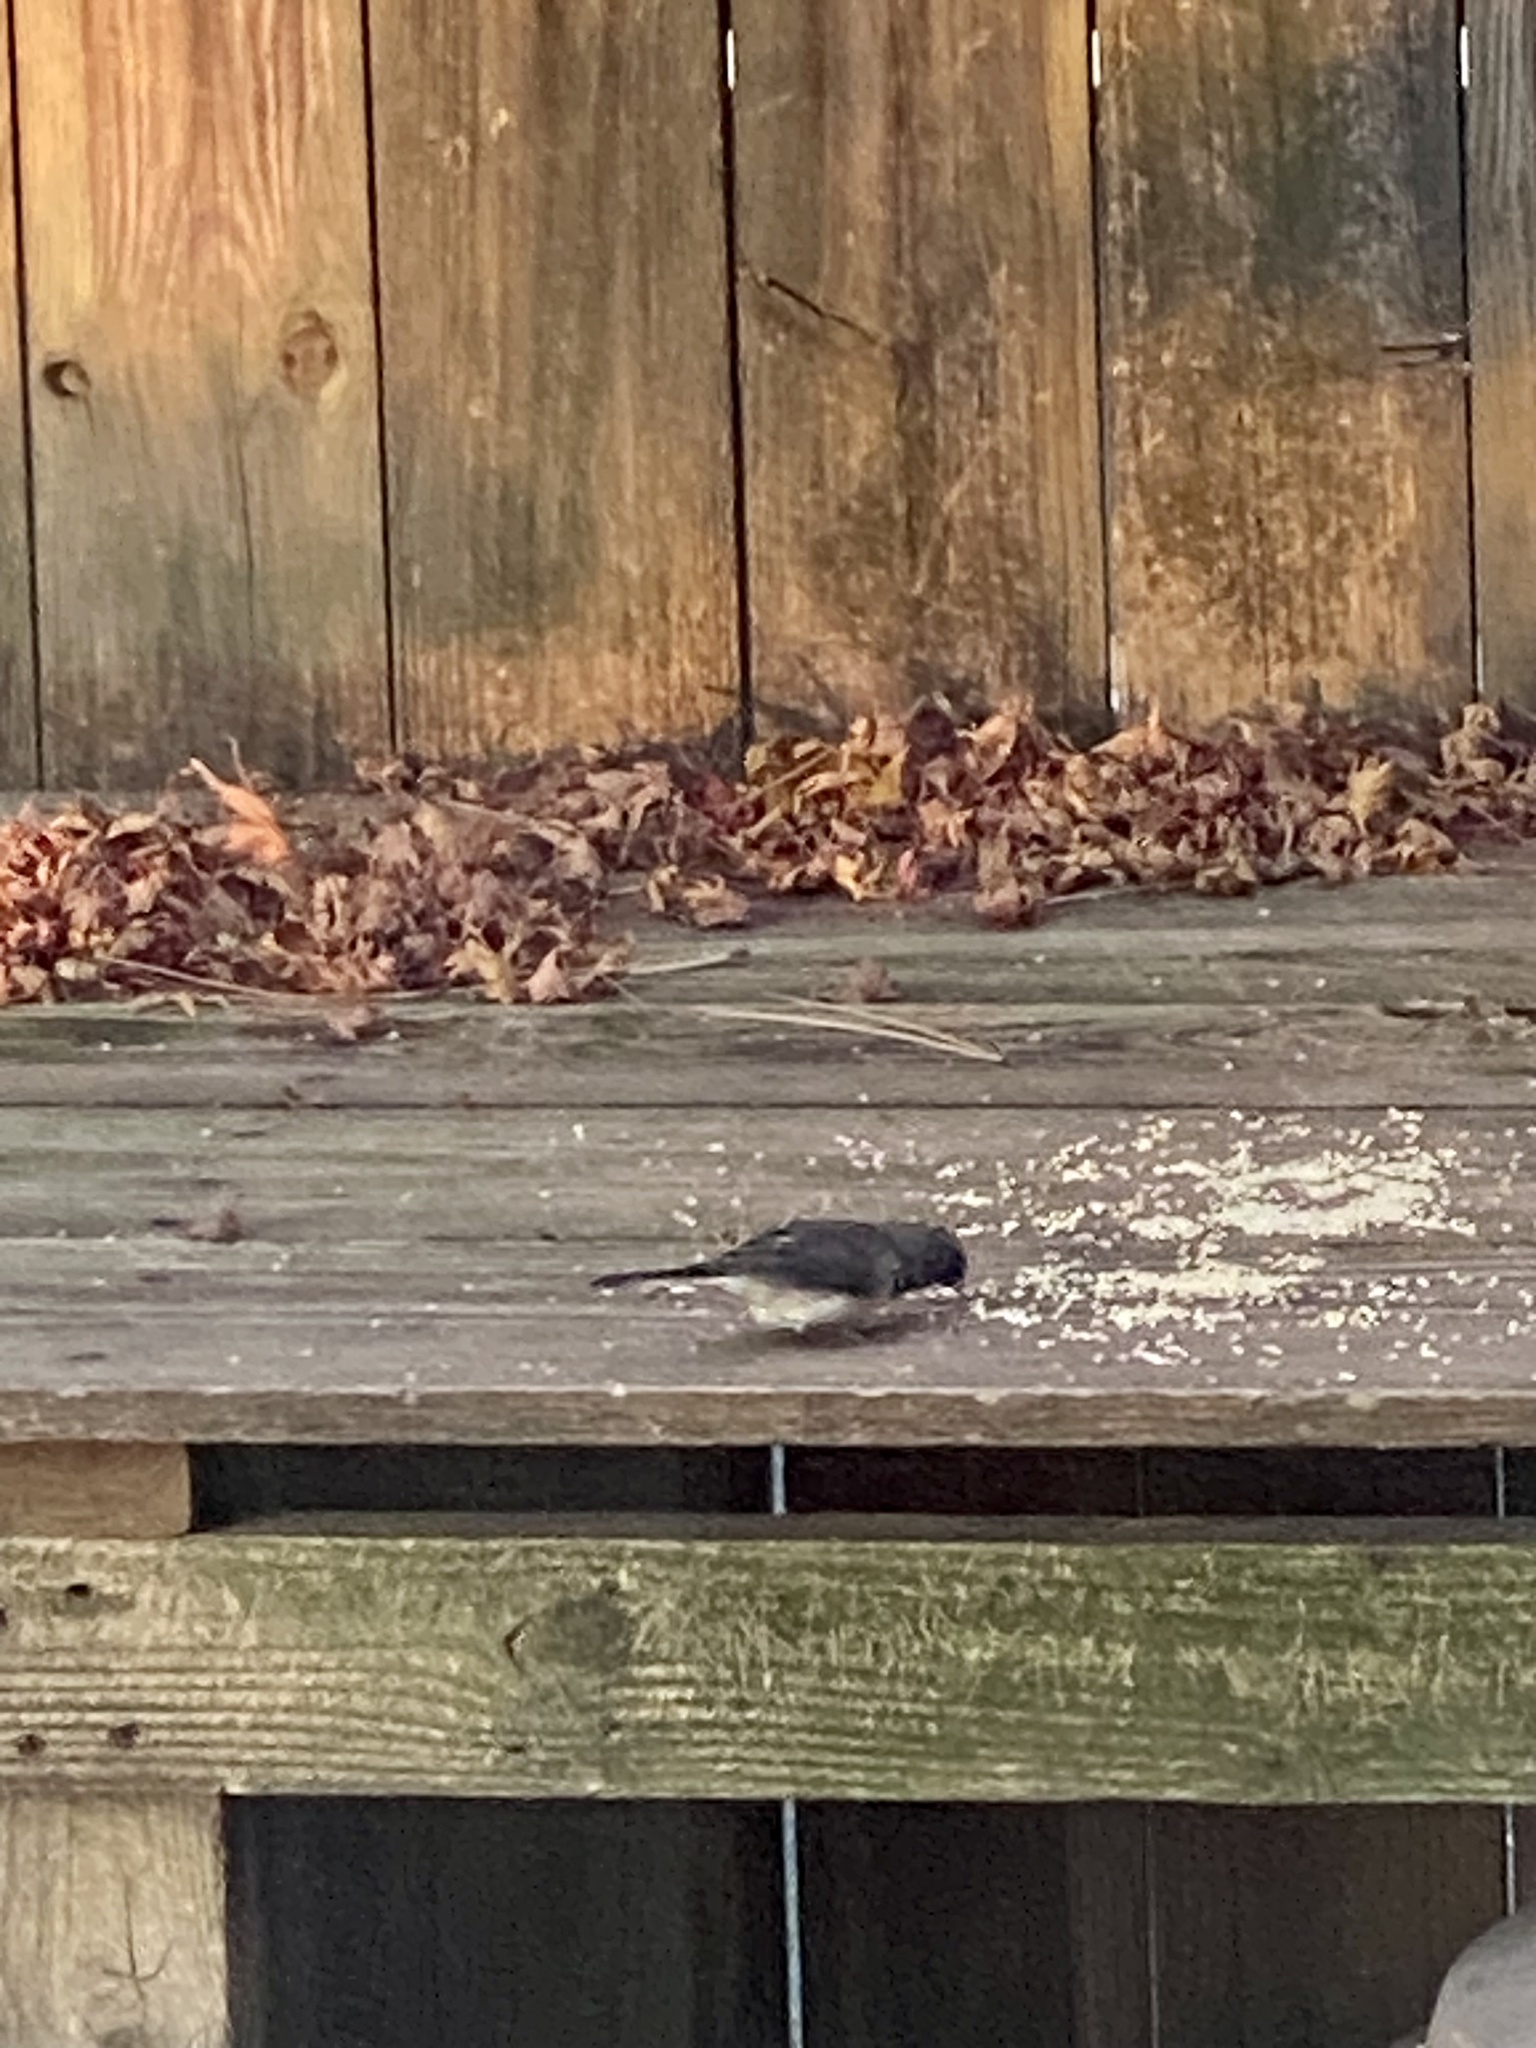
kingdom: Animalia
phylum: Chordata
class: Aves
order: Passeriformes
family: Passerellidae
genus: Junco
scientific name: Junco hyemalis
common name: Dark-eyed junco
